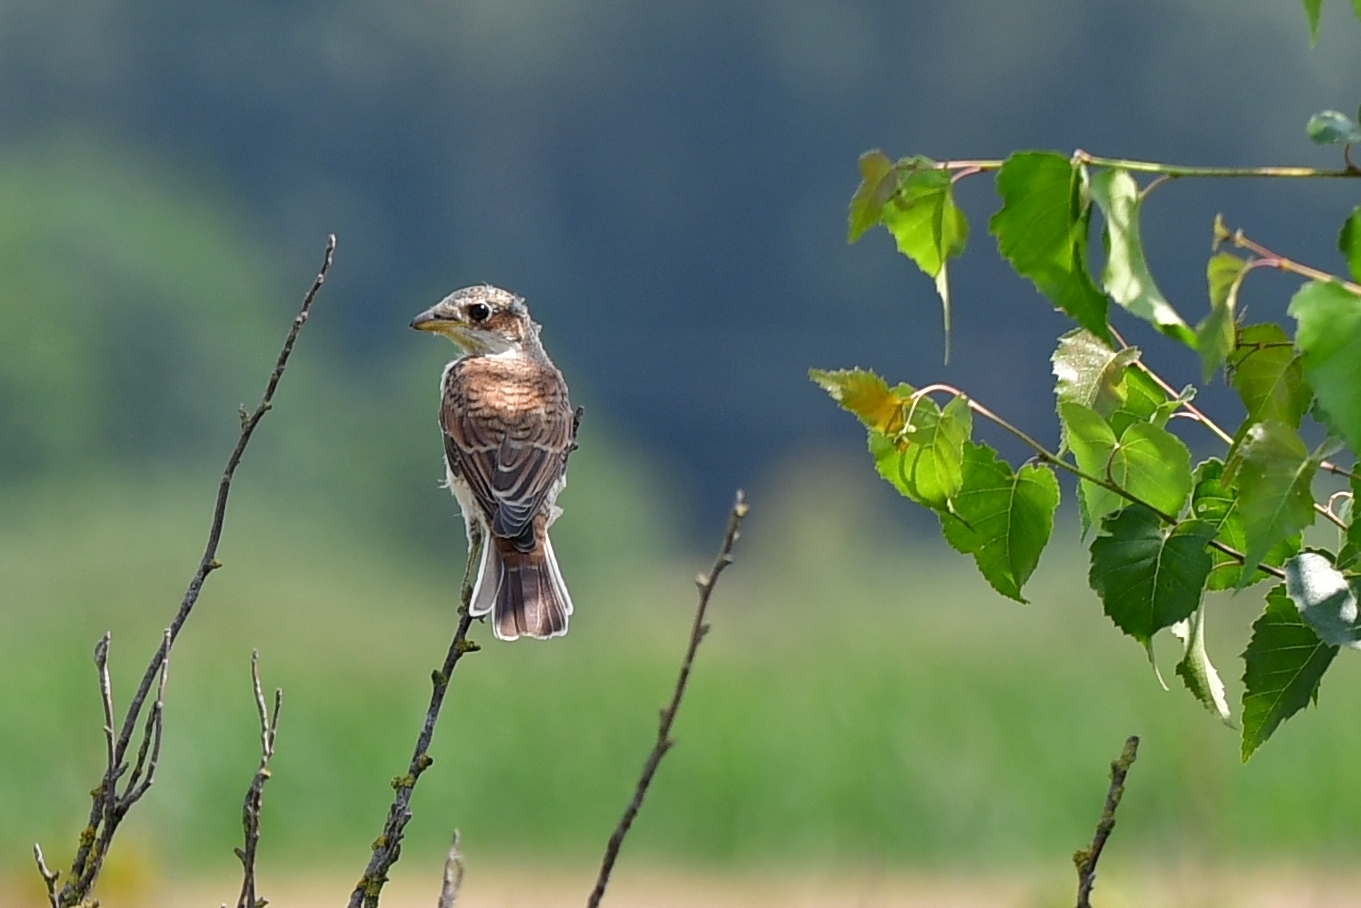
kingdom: Animalia
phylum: Chordata
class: Aves
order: Passeriformes
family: Laniidae
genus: Lanius
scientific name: Lanius collurio
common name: Red-backed shrike
